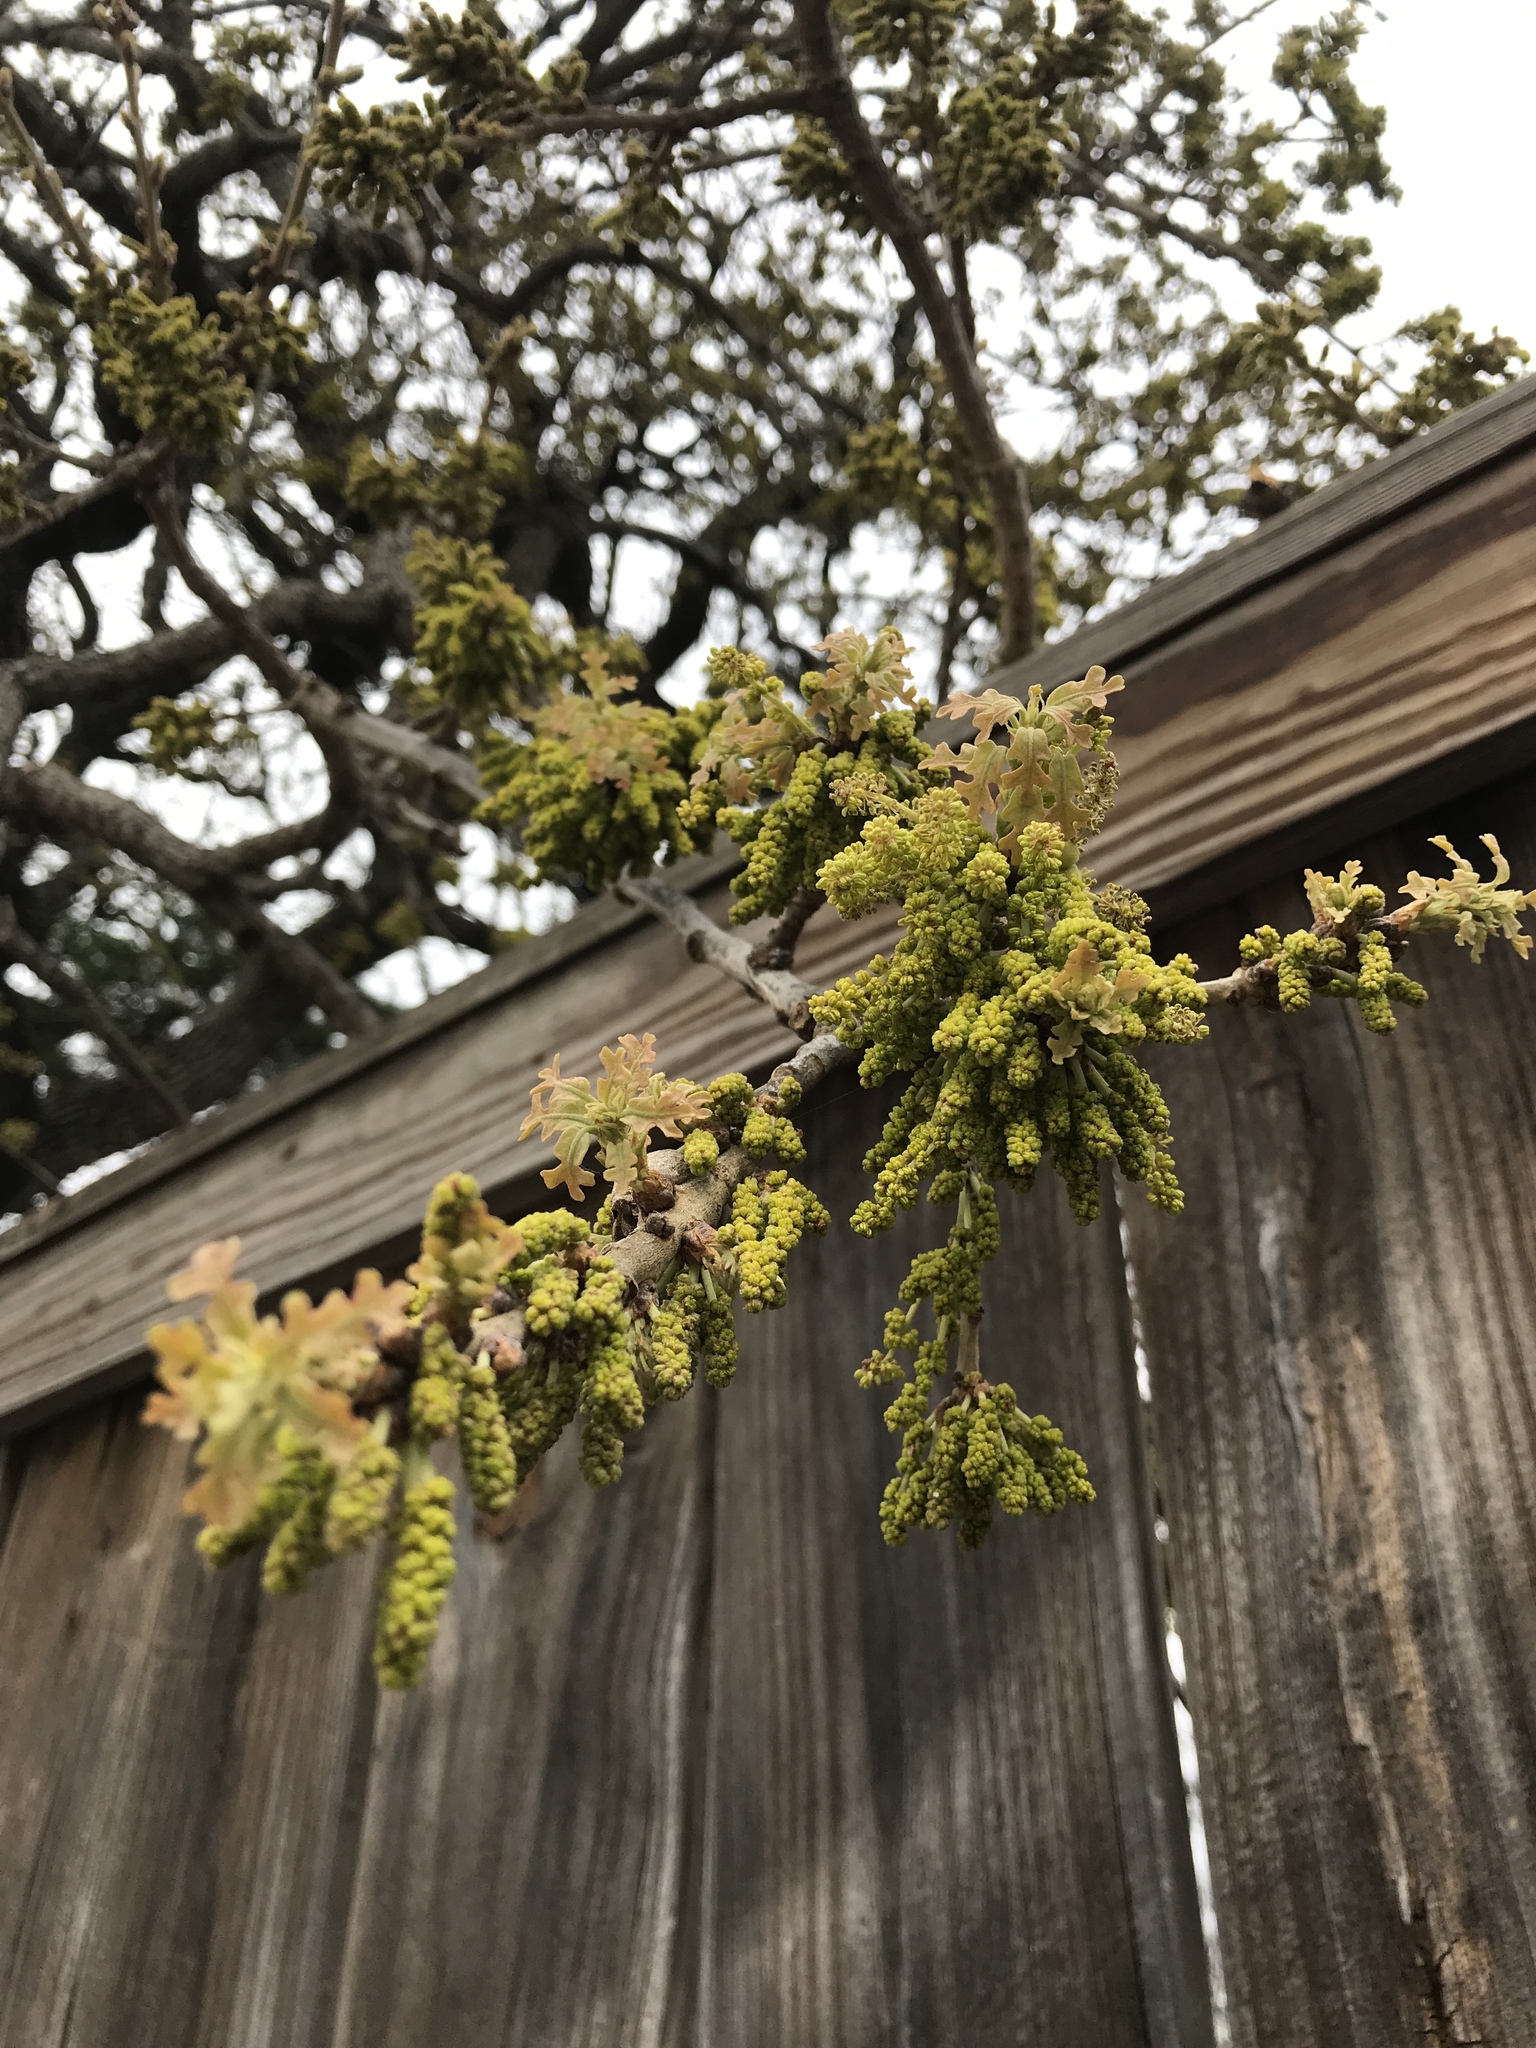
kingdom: Plantae
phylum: Tracheophyta
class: Magnoliopsida
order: Fagales
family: Fagaceae
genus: Quercus
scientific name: Quercus stellata
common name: Post oak
